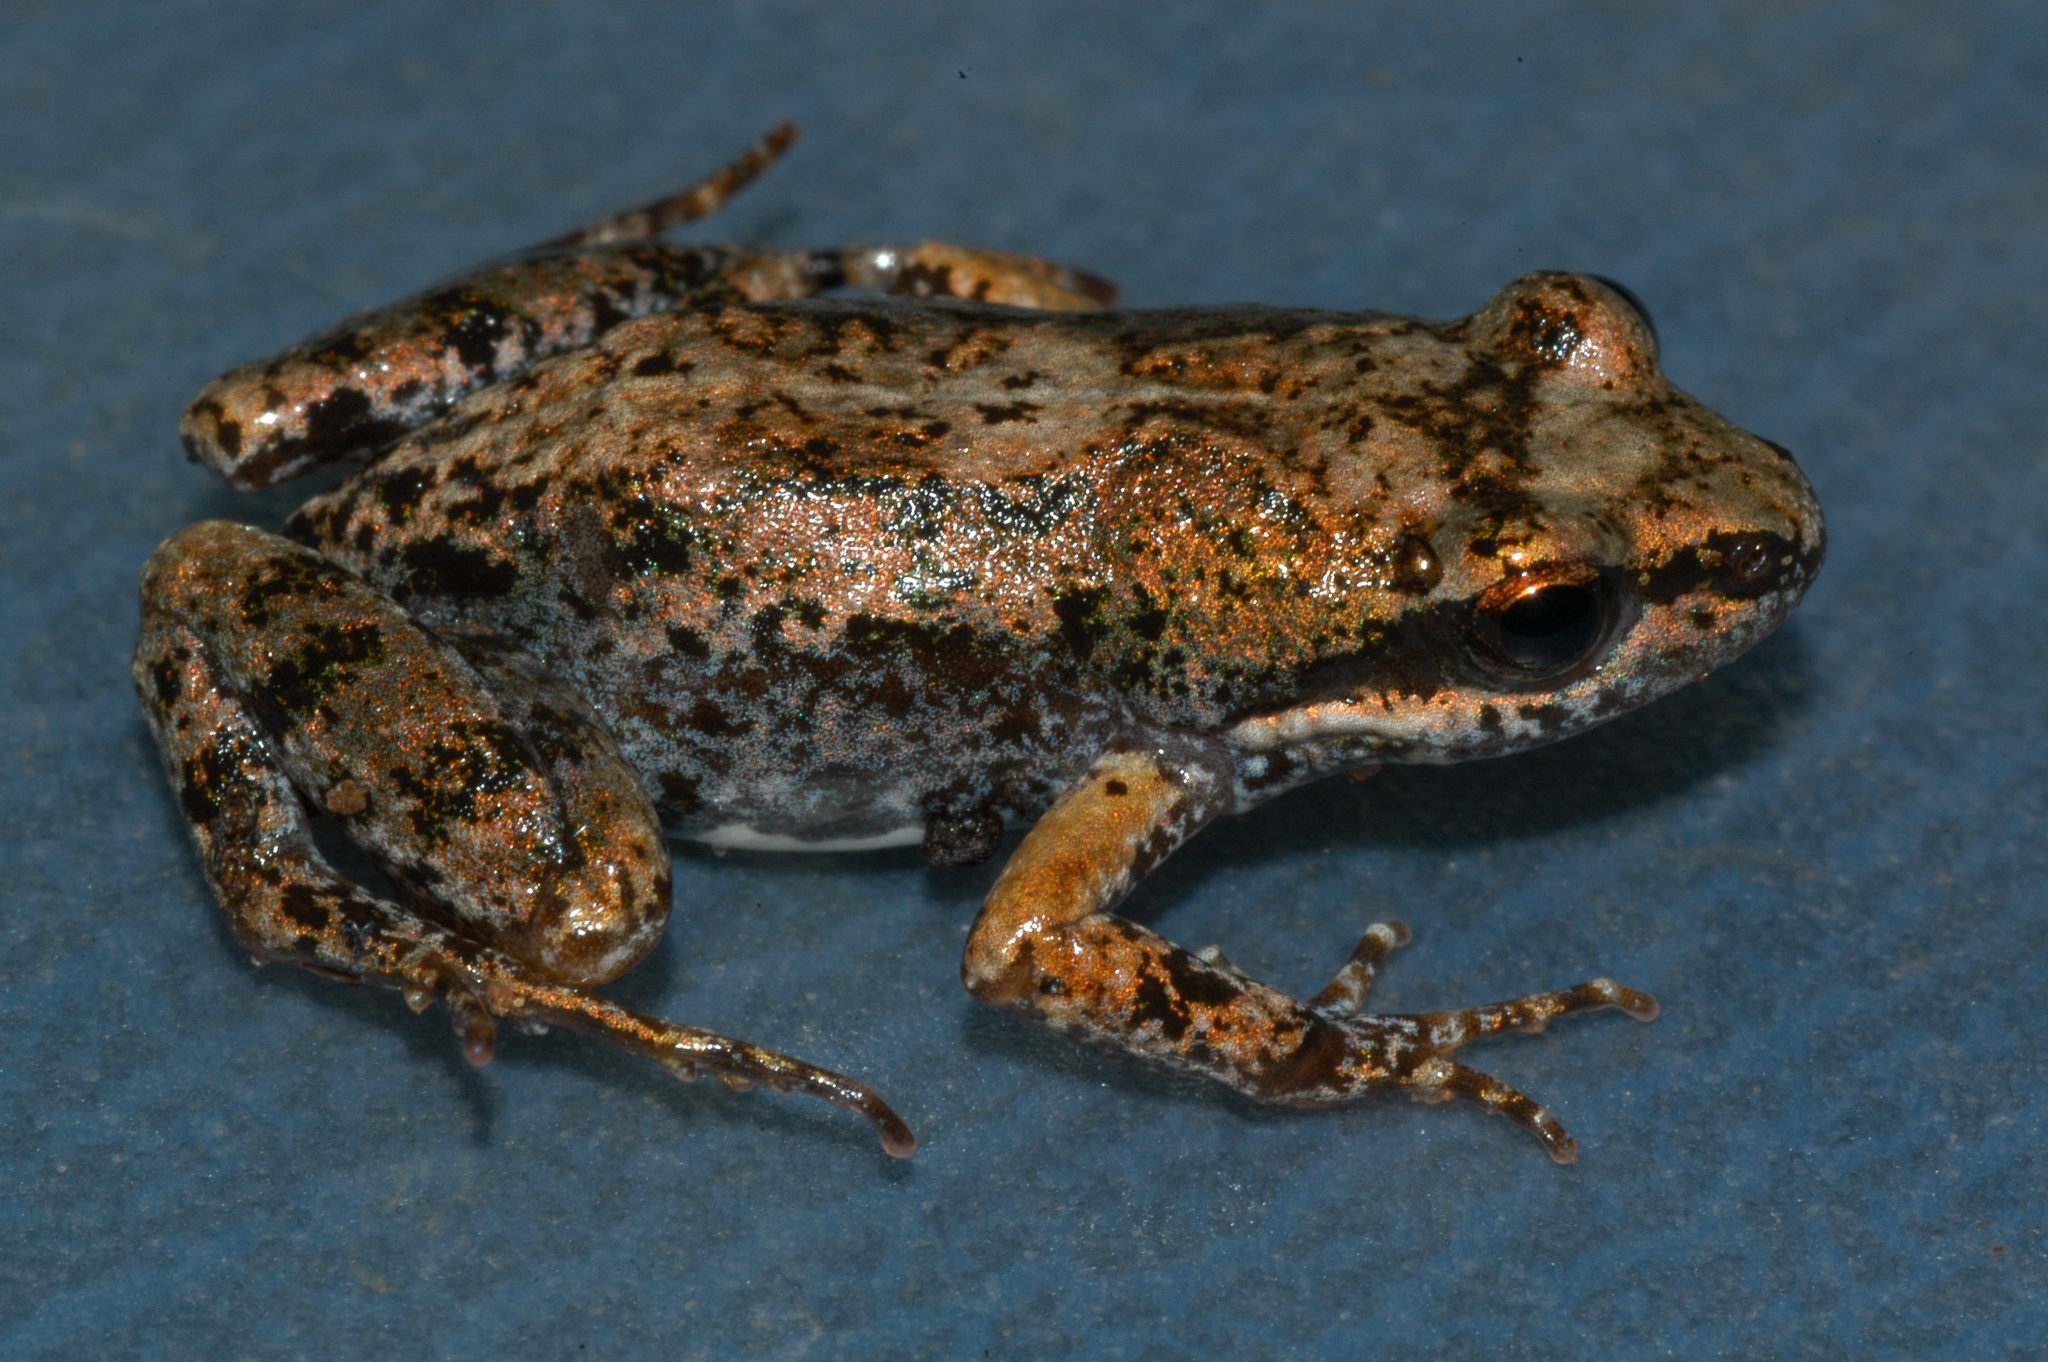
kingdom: Animalia
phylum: Chordata
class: Amphibia
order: Anura
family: Pyxicephalidae
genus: Cacosternum
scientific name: Cacosternum nanogularum
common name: Small-throated dainty frog
